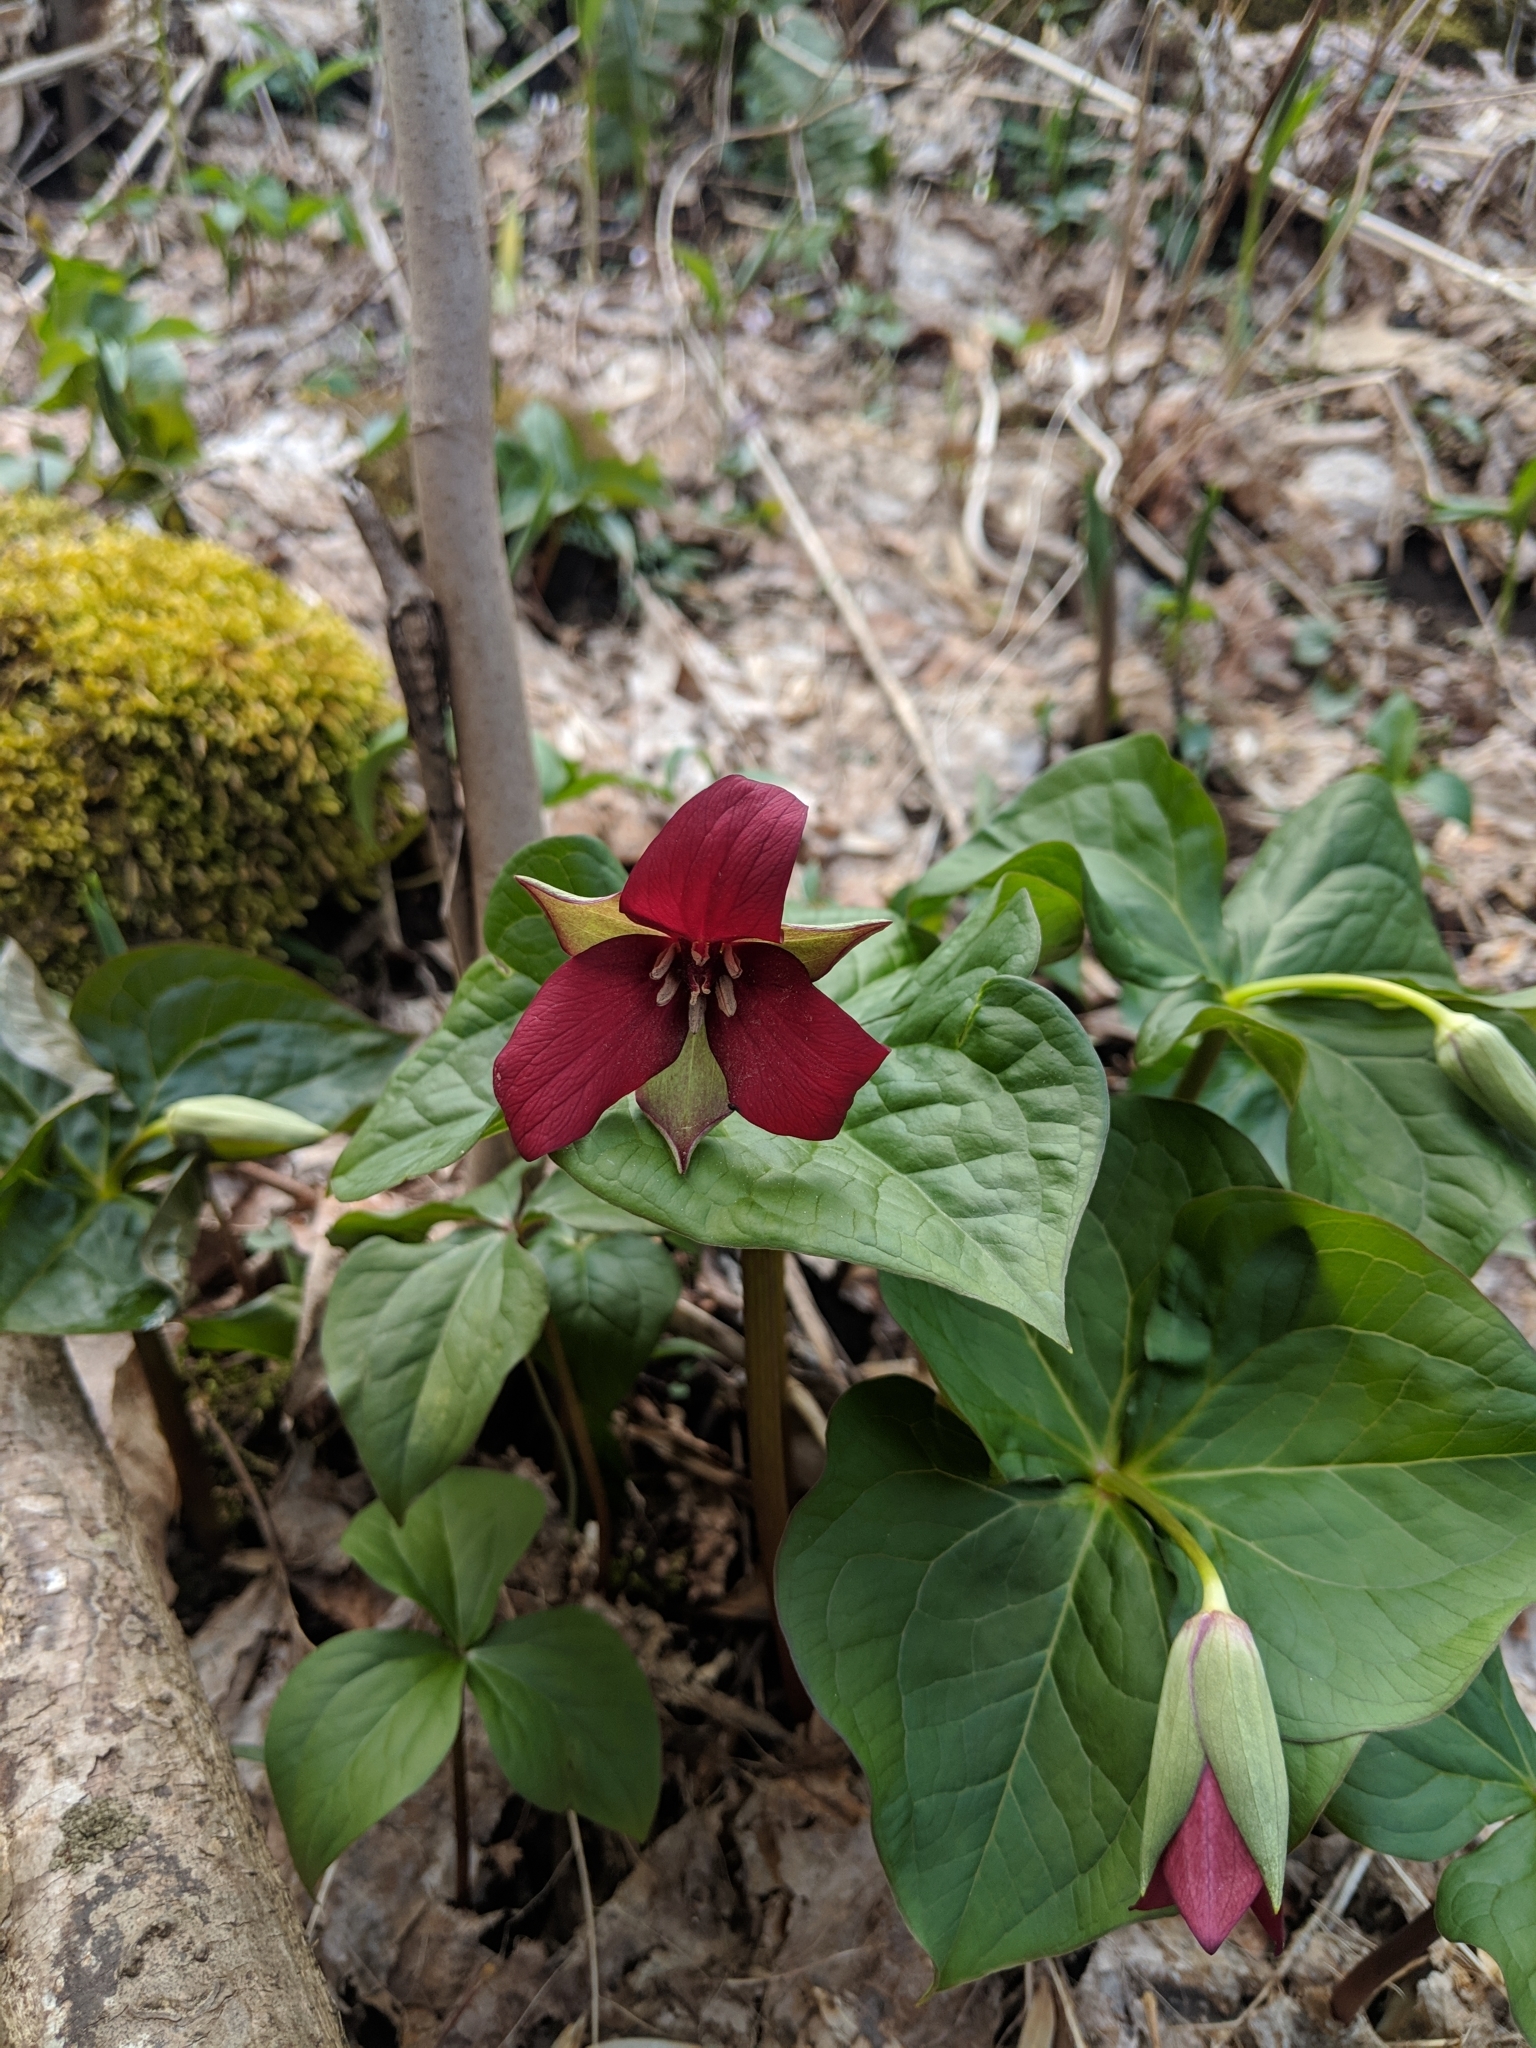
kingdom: Plantae
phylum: Tracheophyta
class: Liliopsida
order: Liliales
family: Melanthiaceae
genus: Trillium
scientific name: Trillium erectum
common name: Purple trillium
